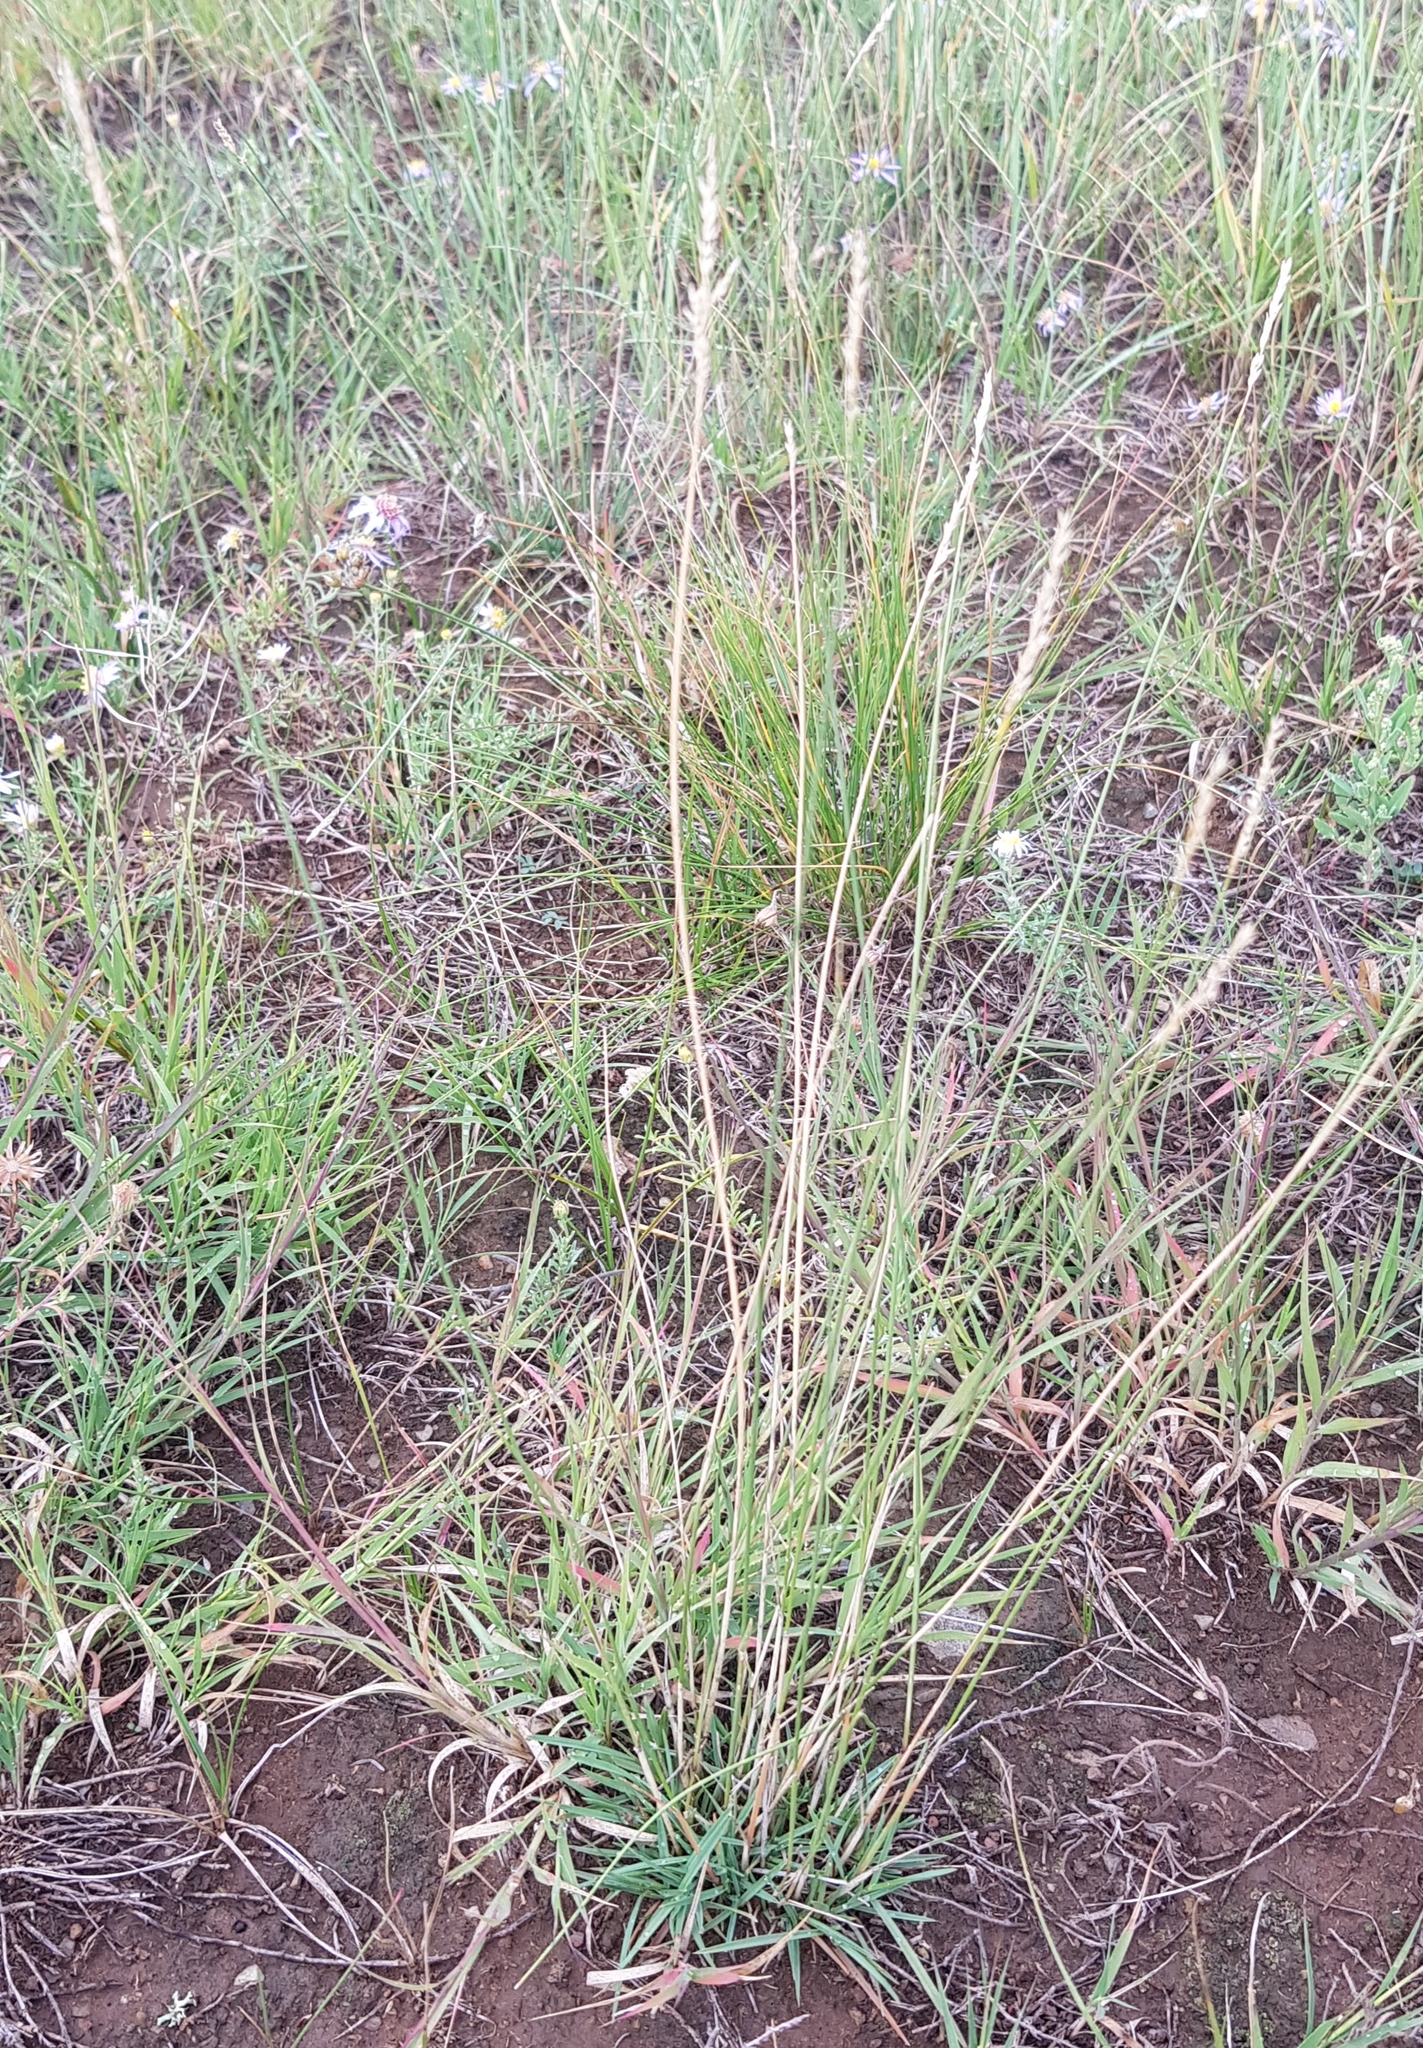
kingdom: Plantae
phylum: Tracheophyta
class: Liliopsida
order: Poales
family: Poaceae
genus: Festuca
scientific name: Festuca lenensis
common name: Lena river fescue
